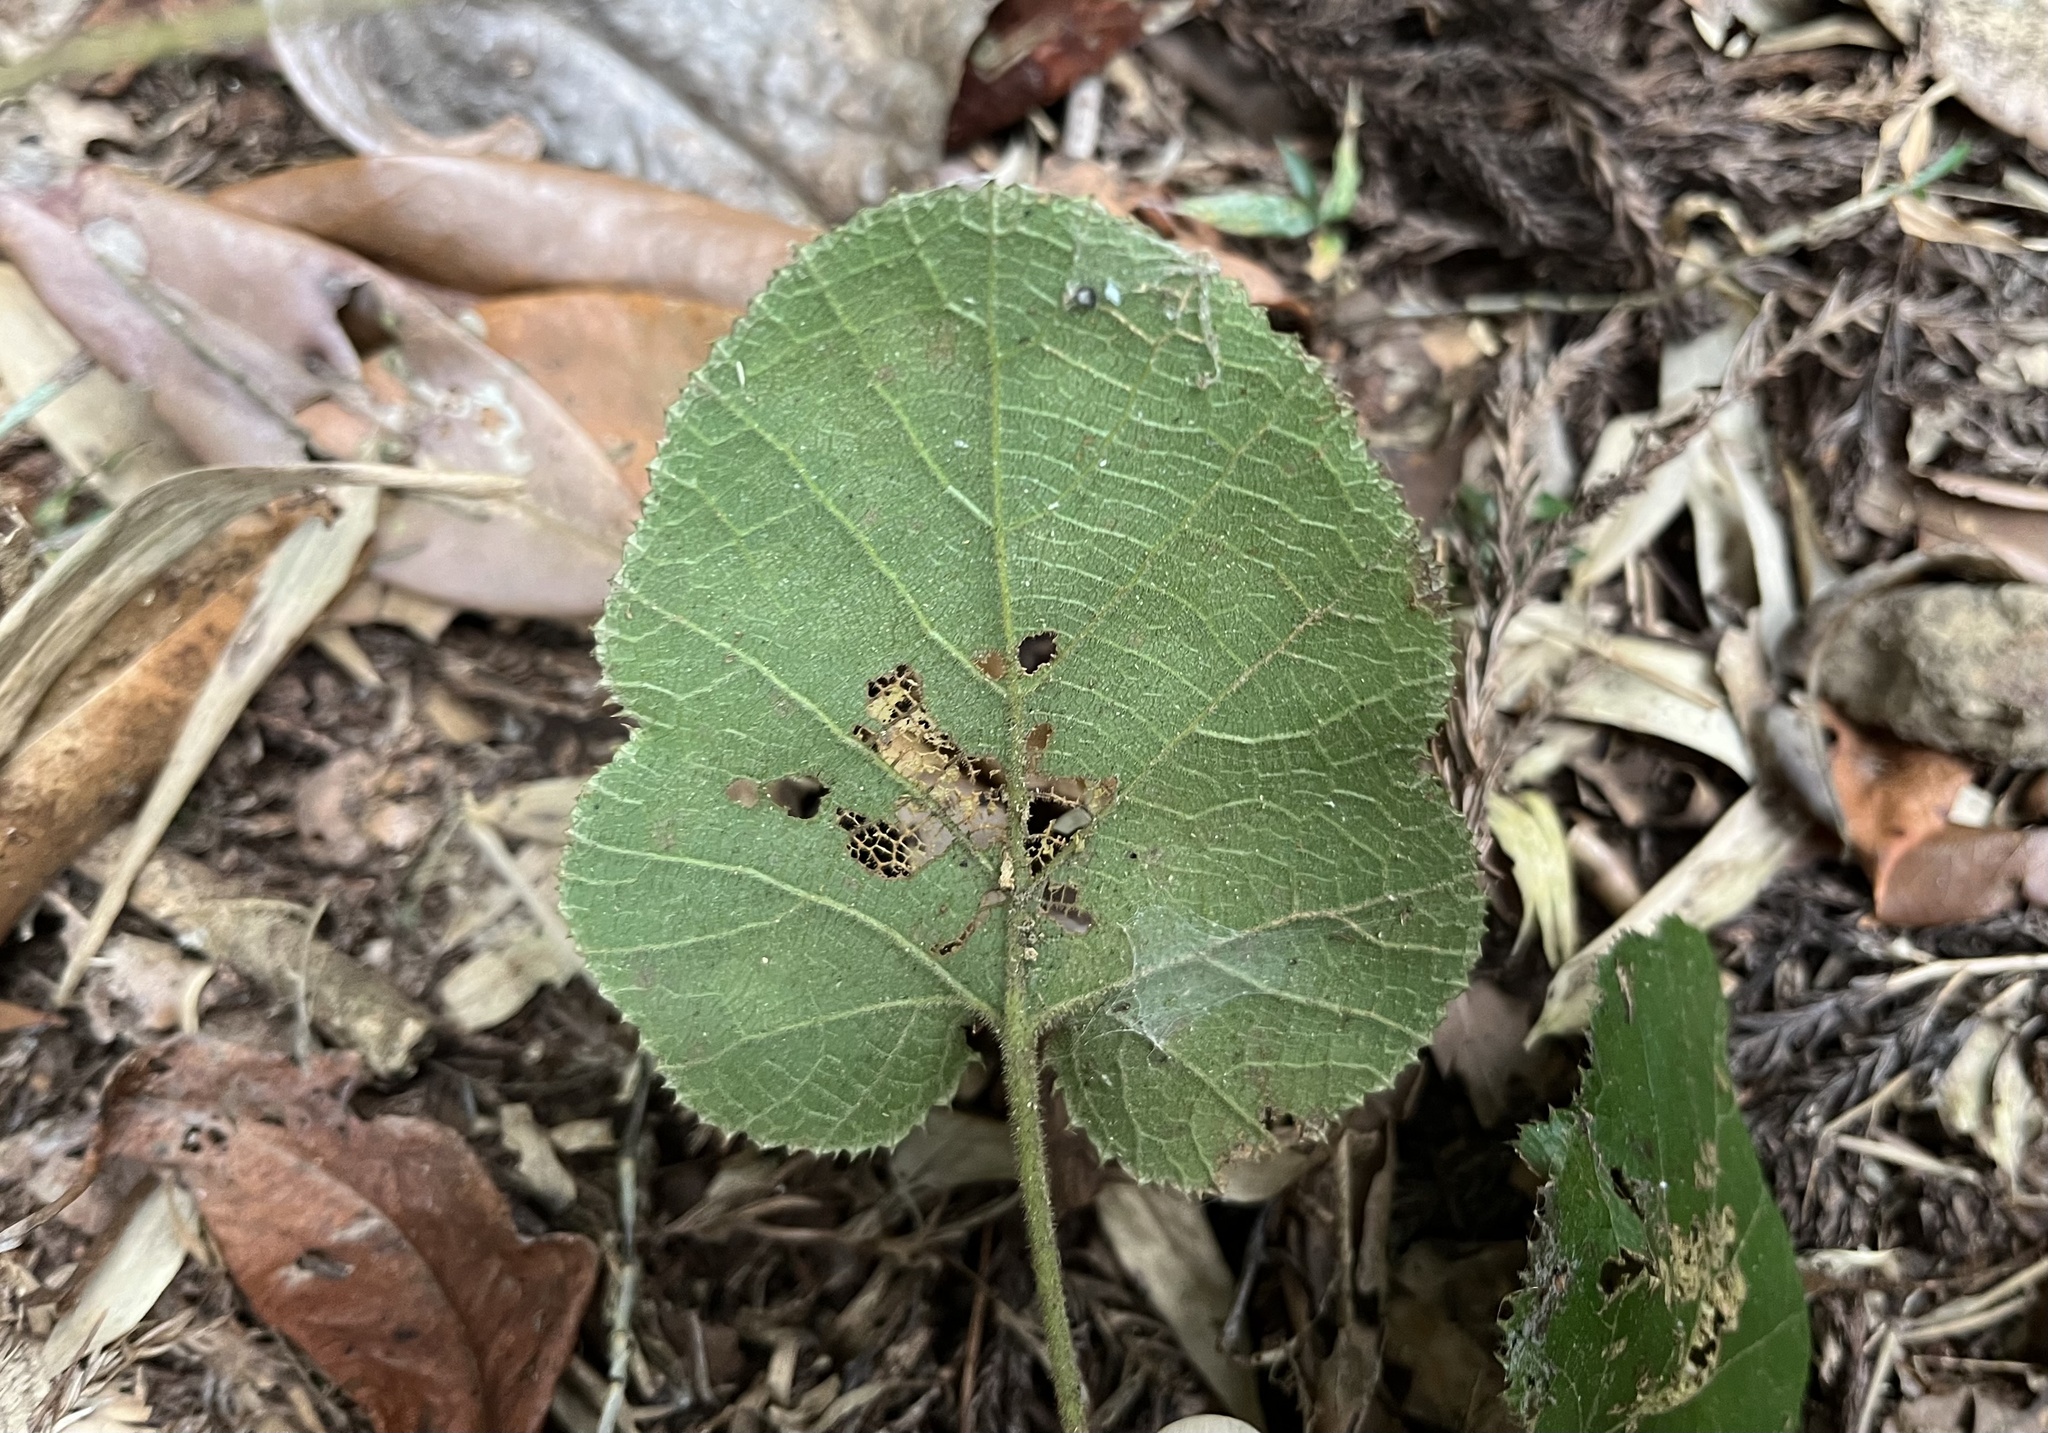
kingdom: Plantae
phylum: Tracheophyta
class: Magnoliopsida
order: Rosales
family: Rosaceae
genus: Rubus
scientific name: Rubus buergeri
